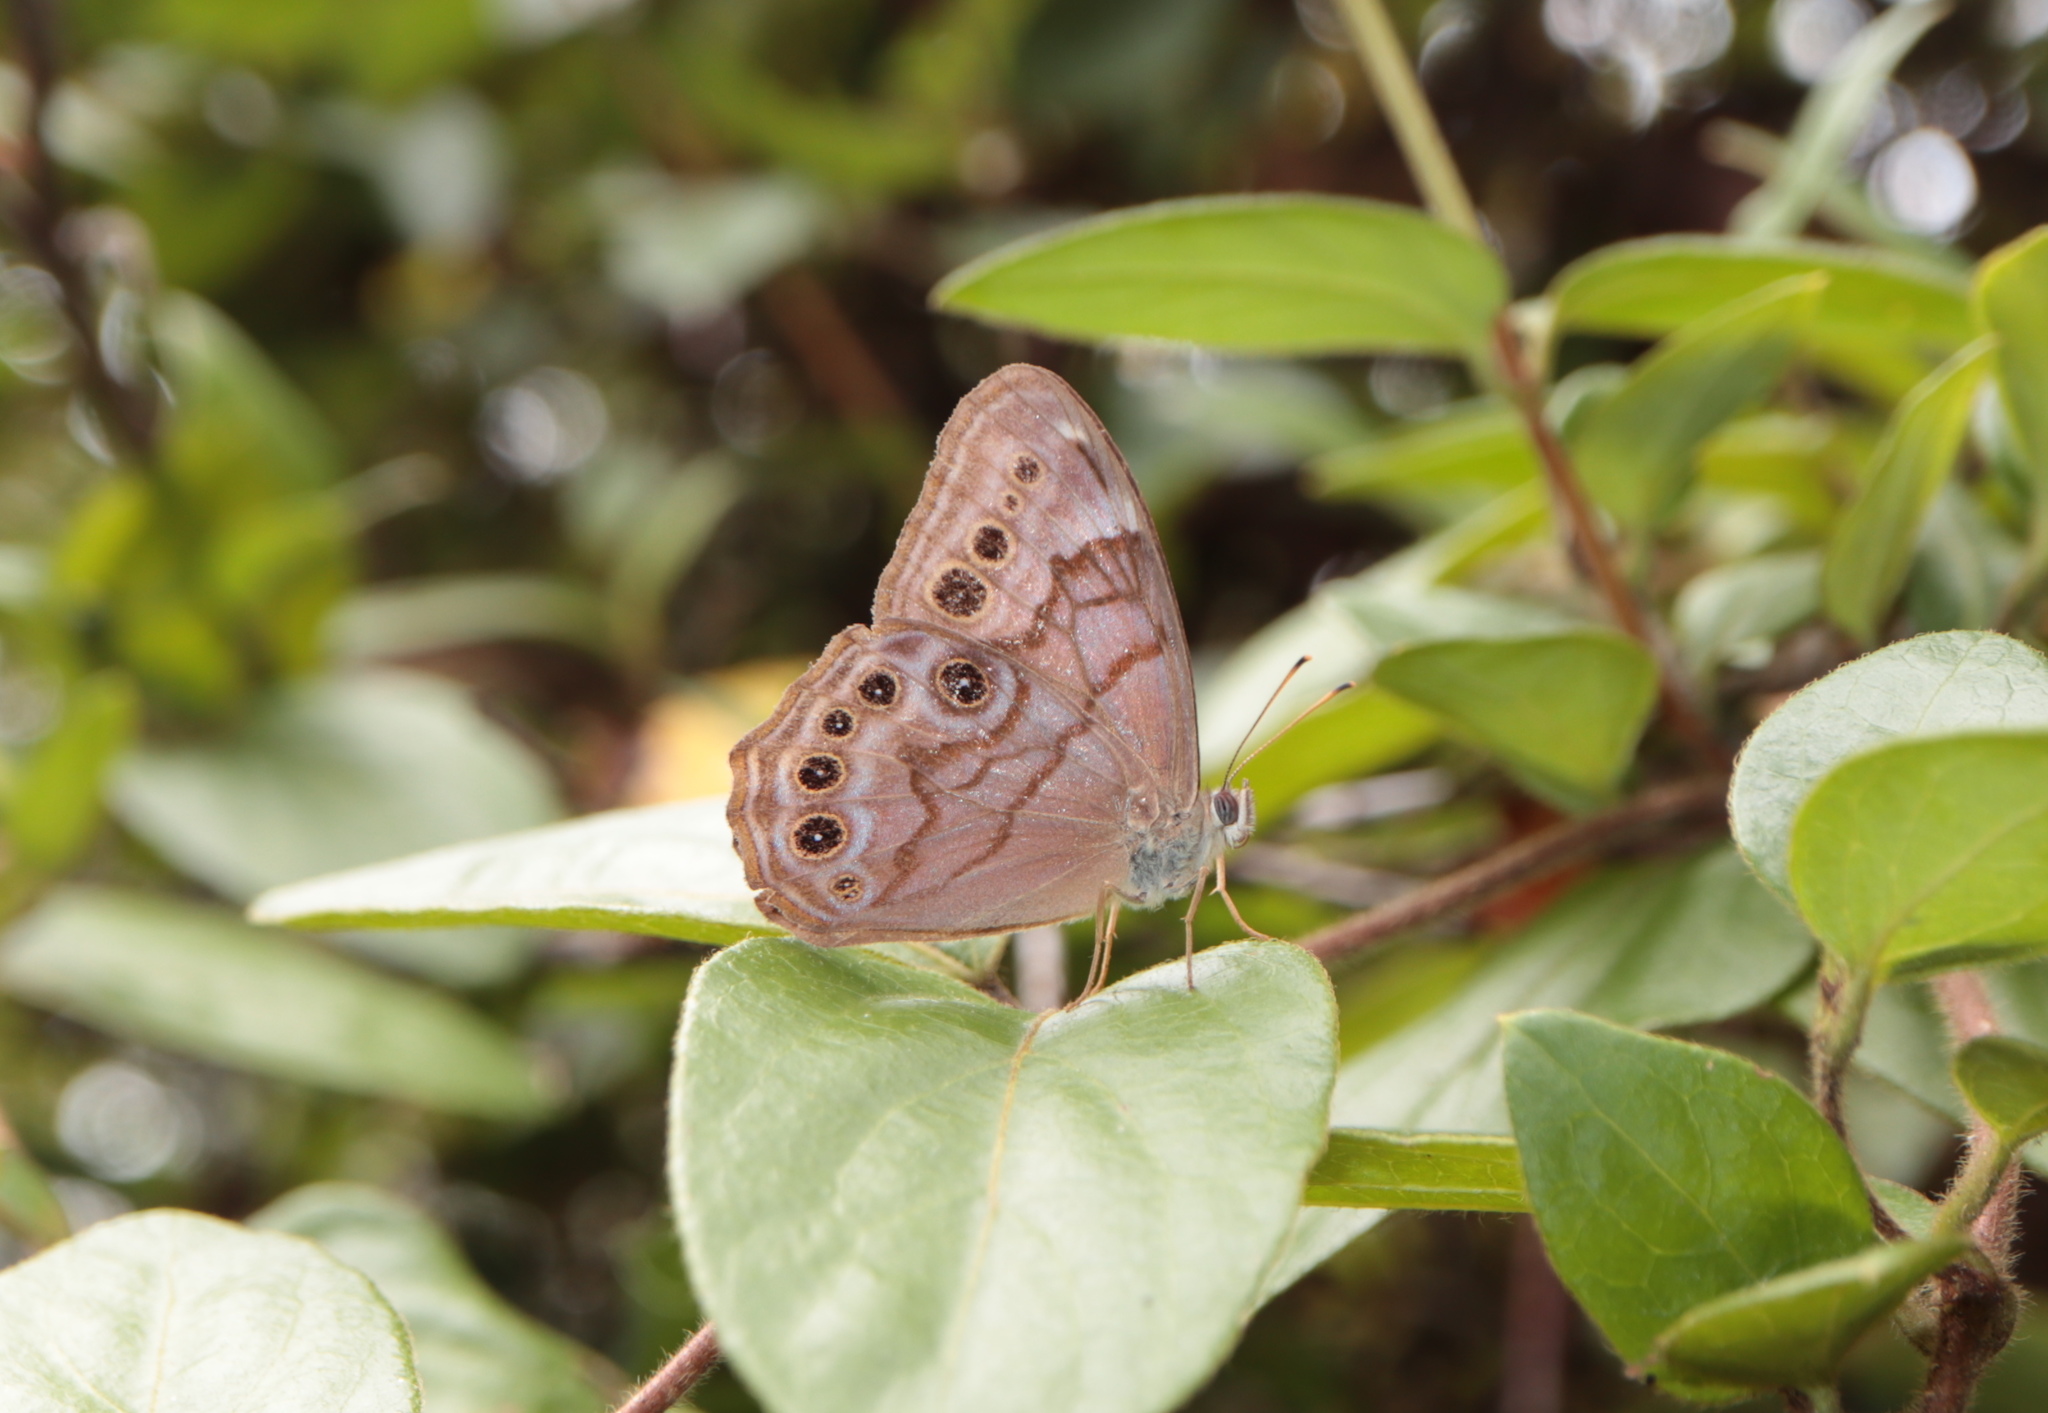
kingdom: Animalia
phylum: Arthropoda
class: Insecta
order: Lepidoptera
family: Nymphalidae
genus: Lethe
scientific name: Lethe anthedon
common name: Northern pearly-eye
